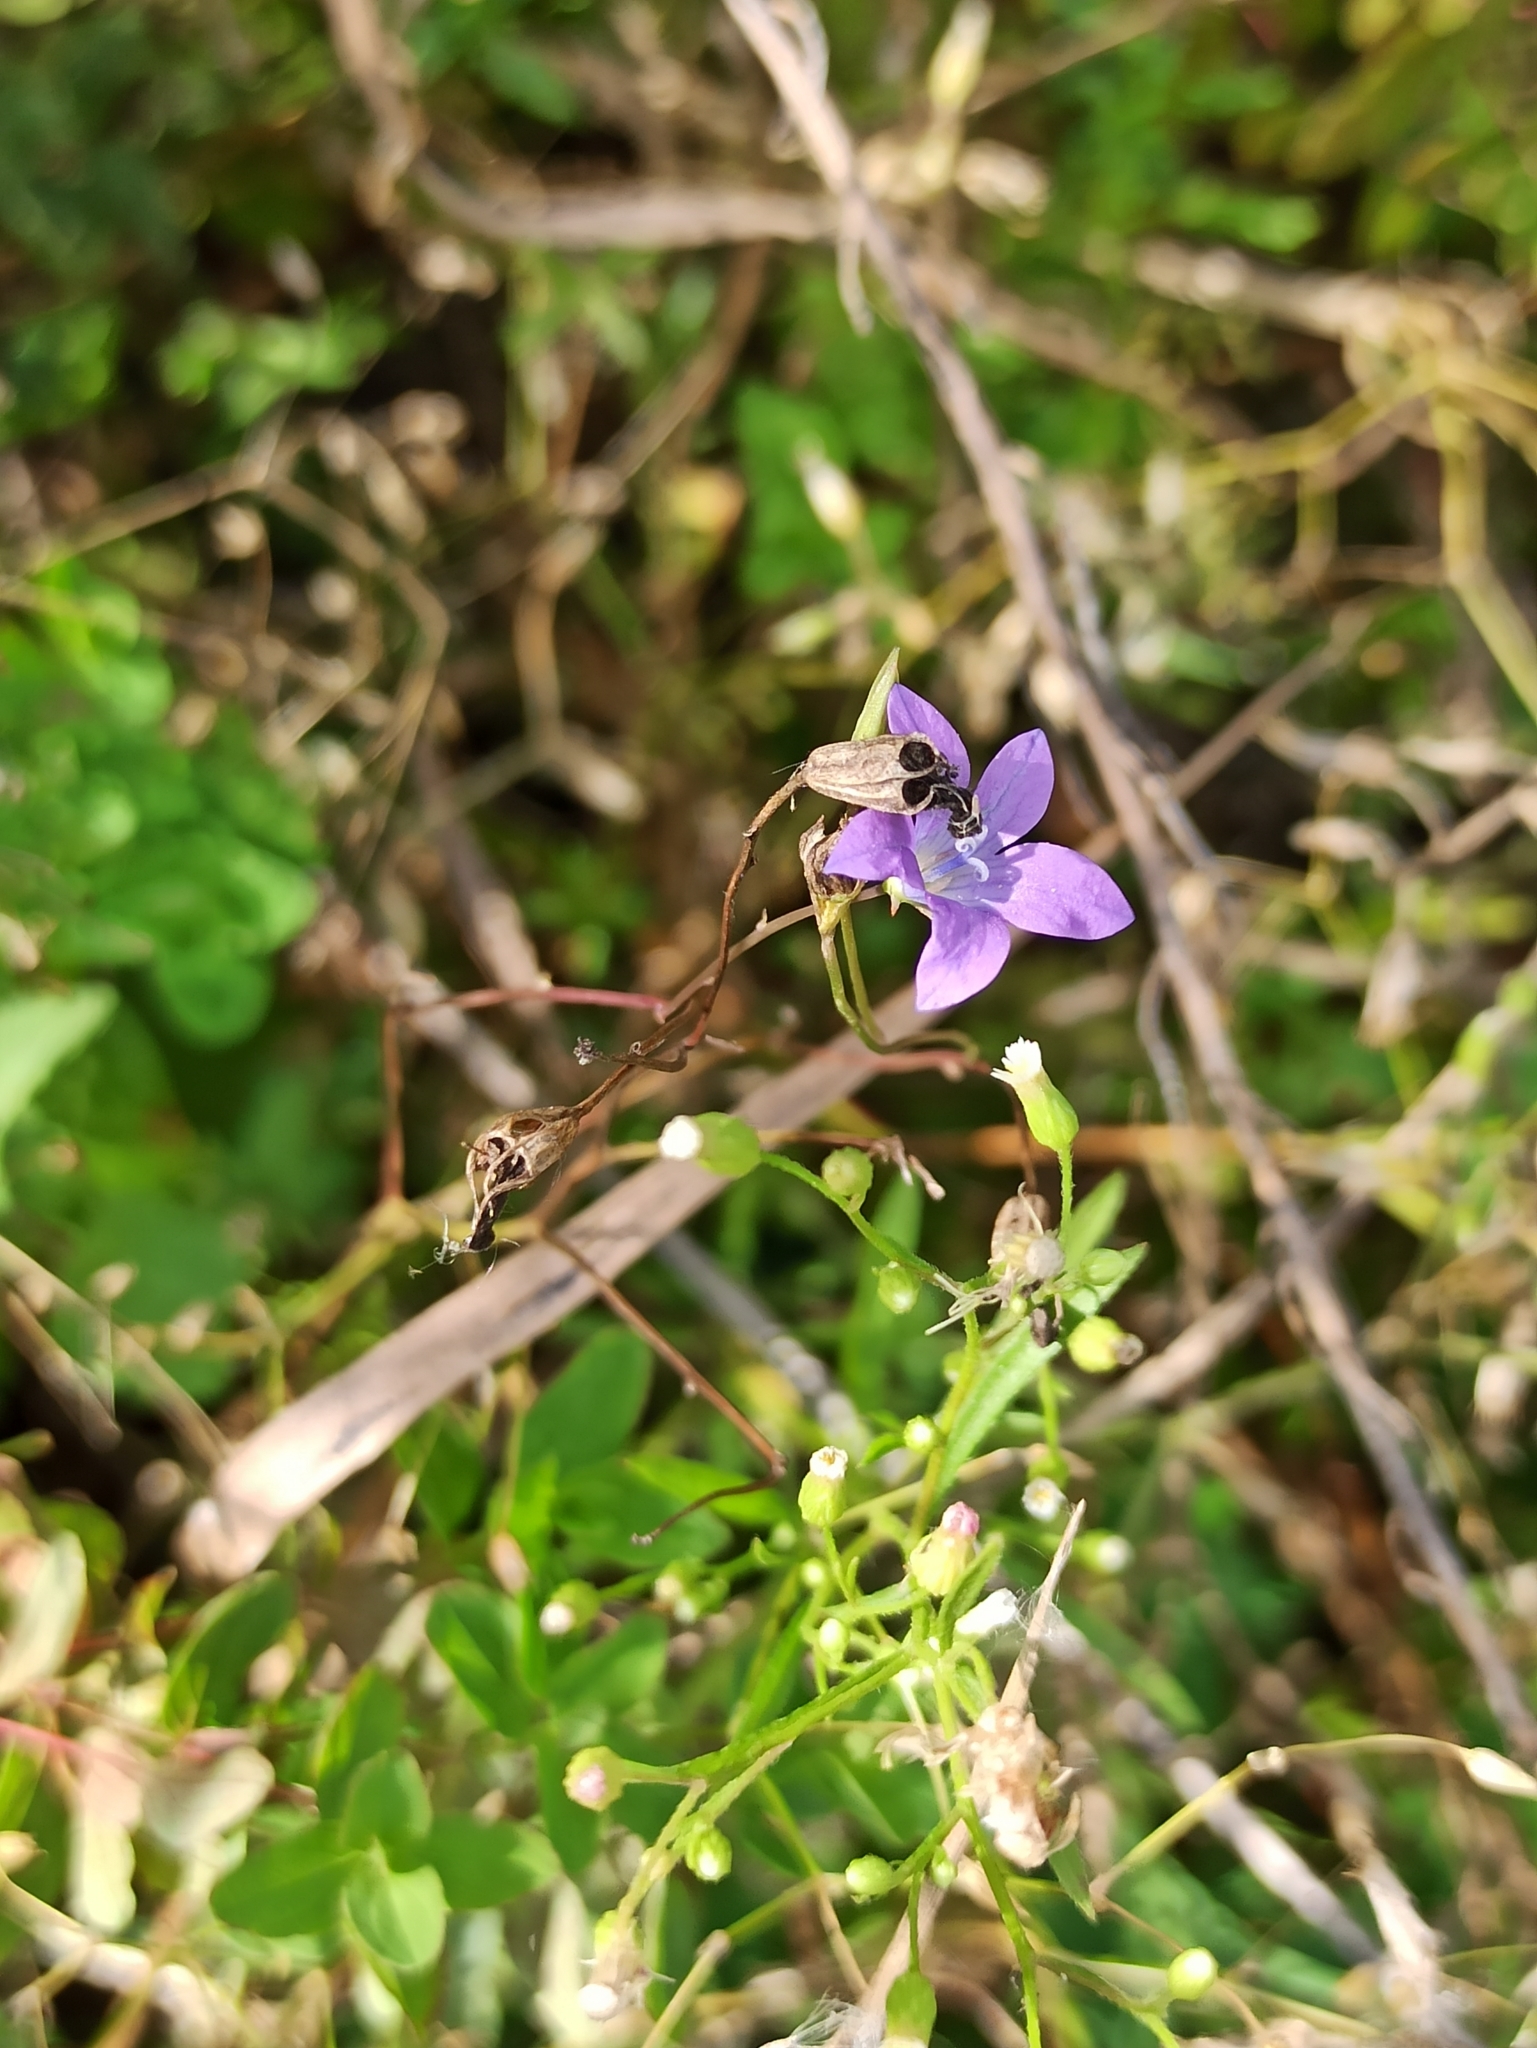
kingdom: Plantae
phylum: Tracheophyta
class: Magnoliopsida
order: Asterales
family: Campanulaceae
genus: Campanula
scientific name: Campanula patula
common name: Spreading bellflower
